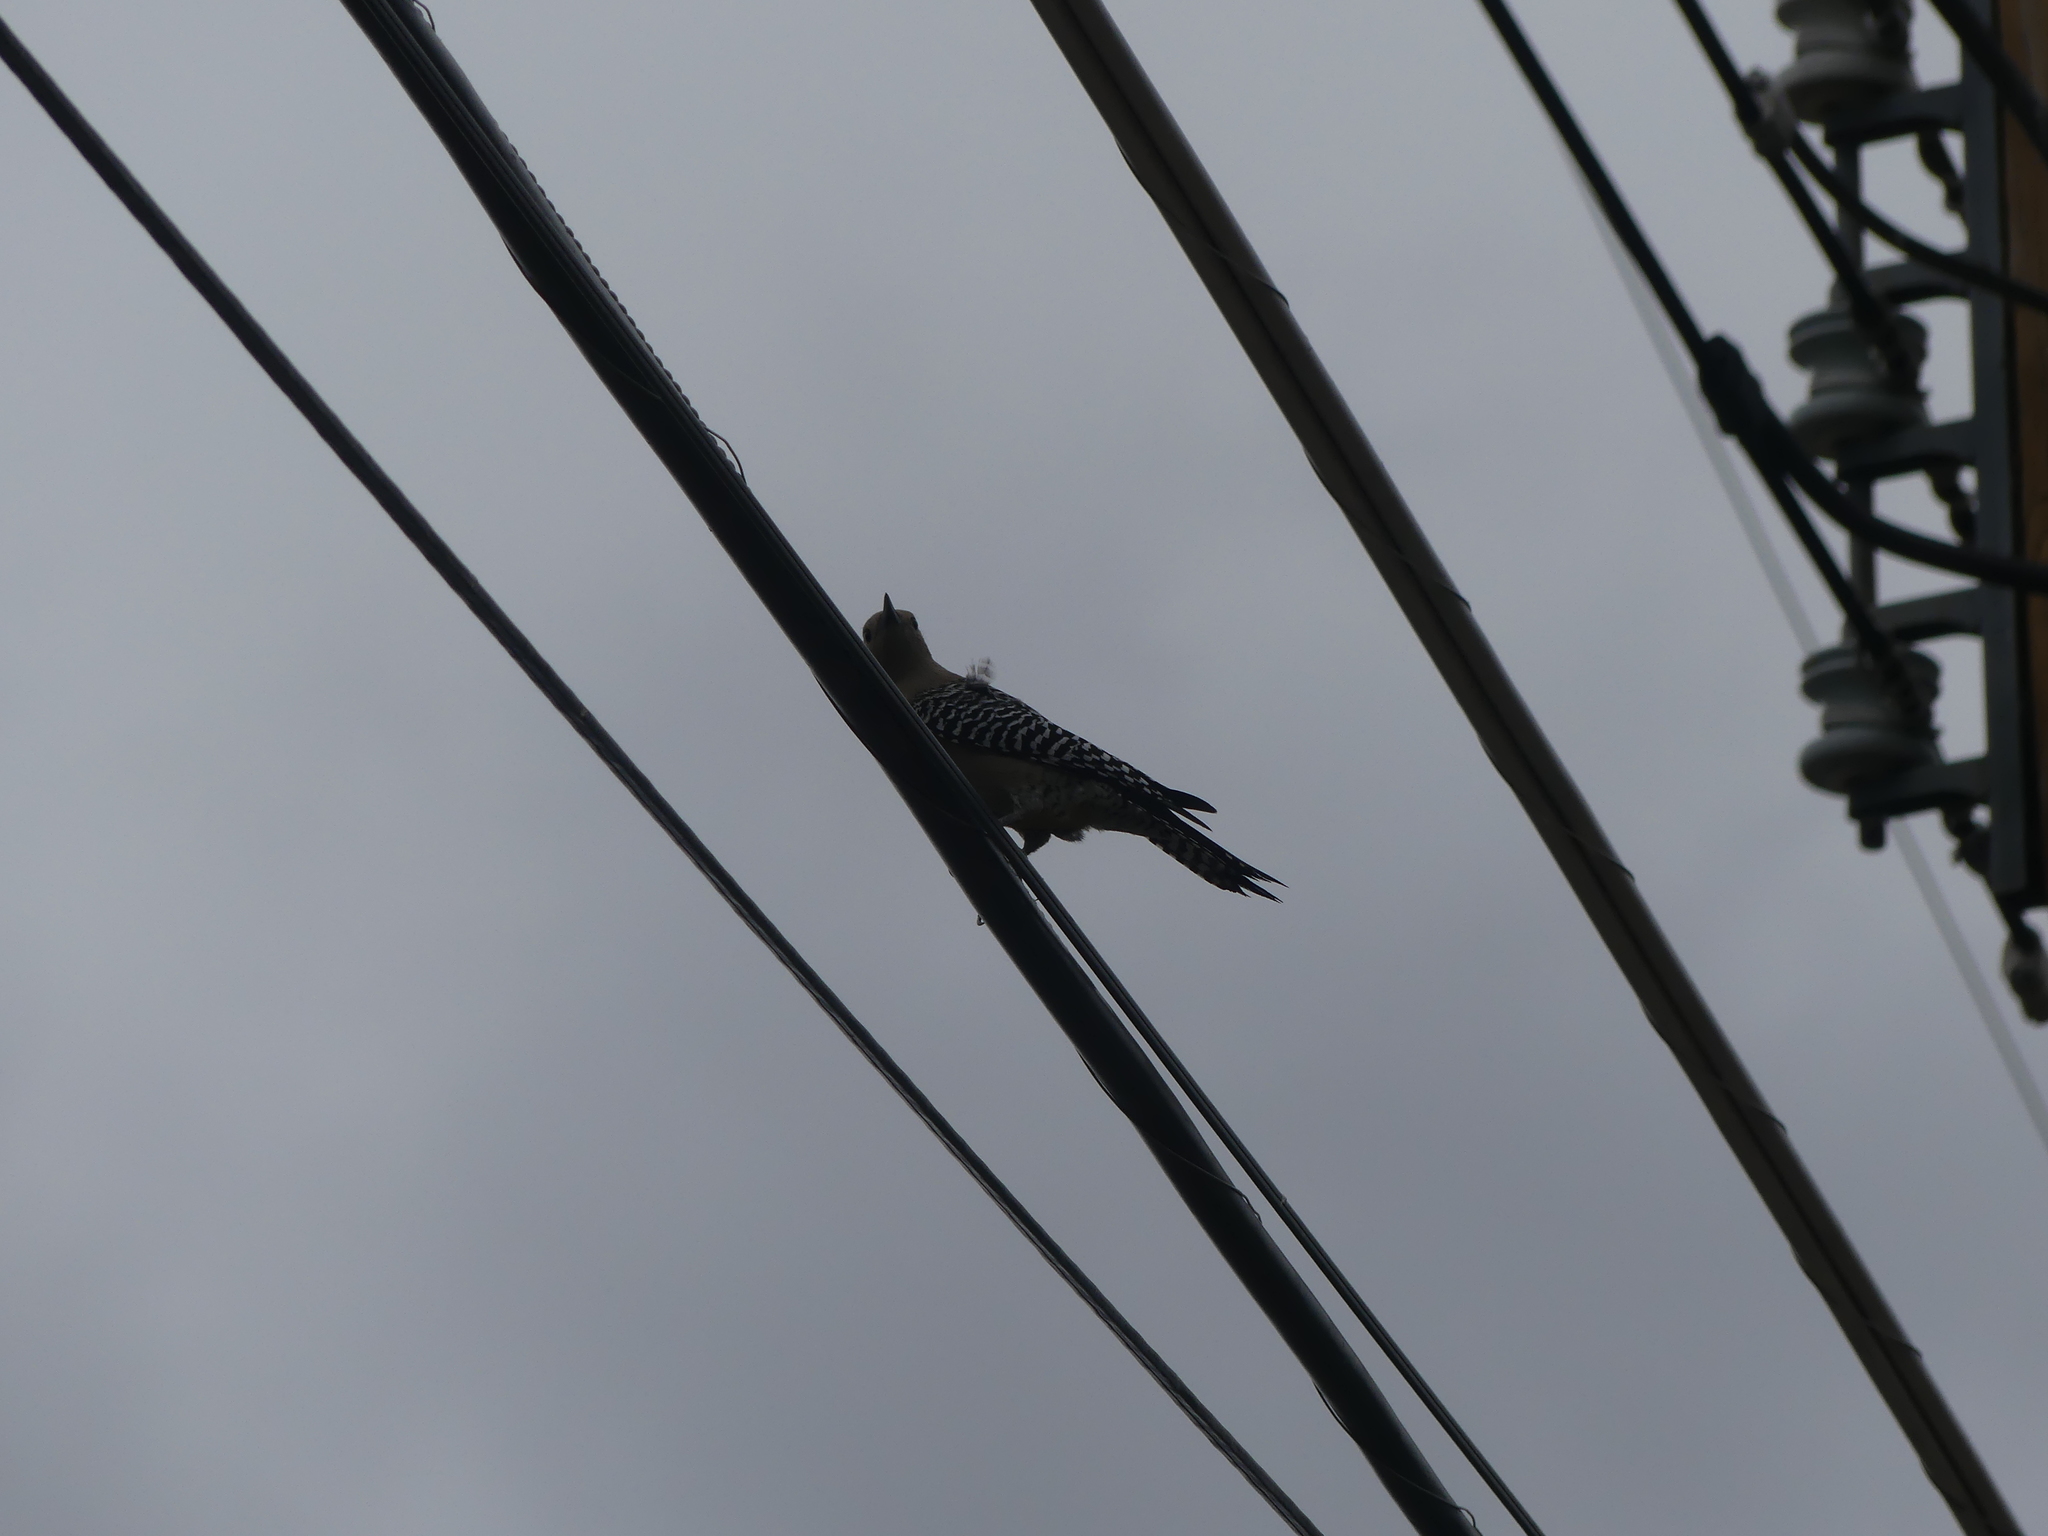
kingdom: Animalia
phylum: Chordata
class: Aves
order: Piciformes
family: Picidae
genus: Melanerpes
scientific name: Melanerpes uropygialis
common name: Gila woodpecker
